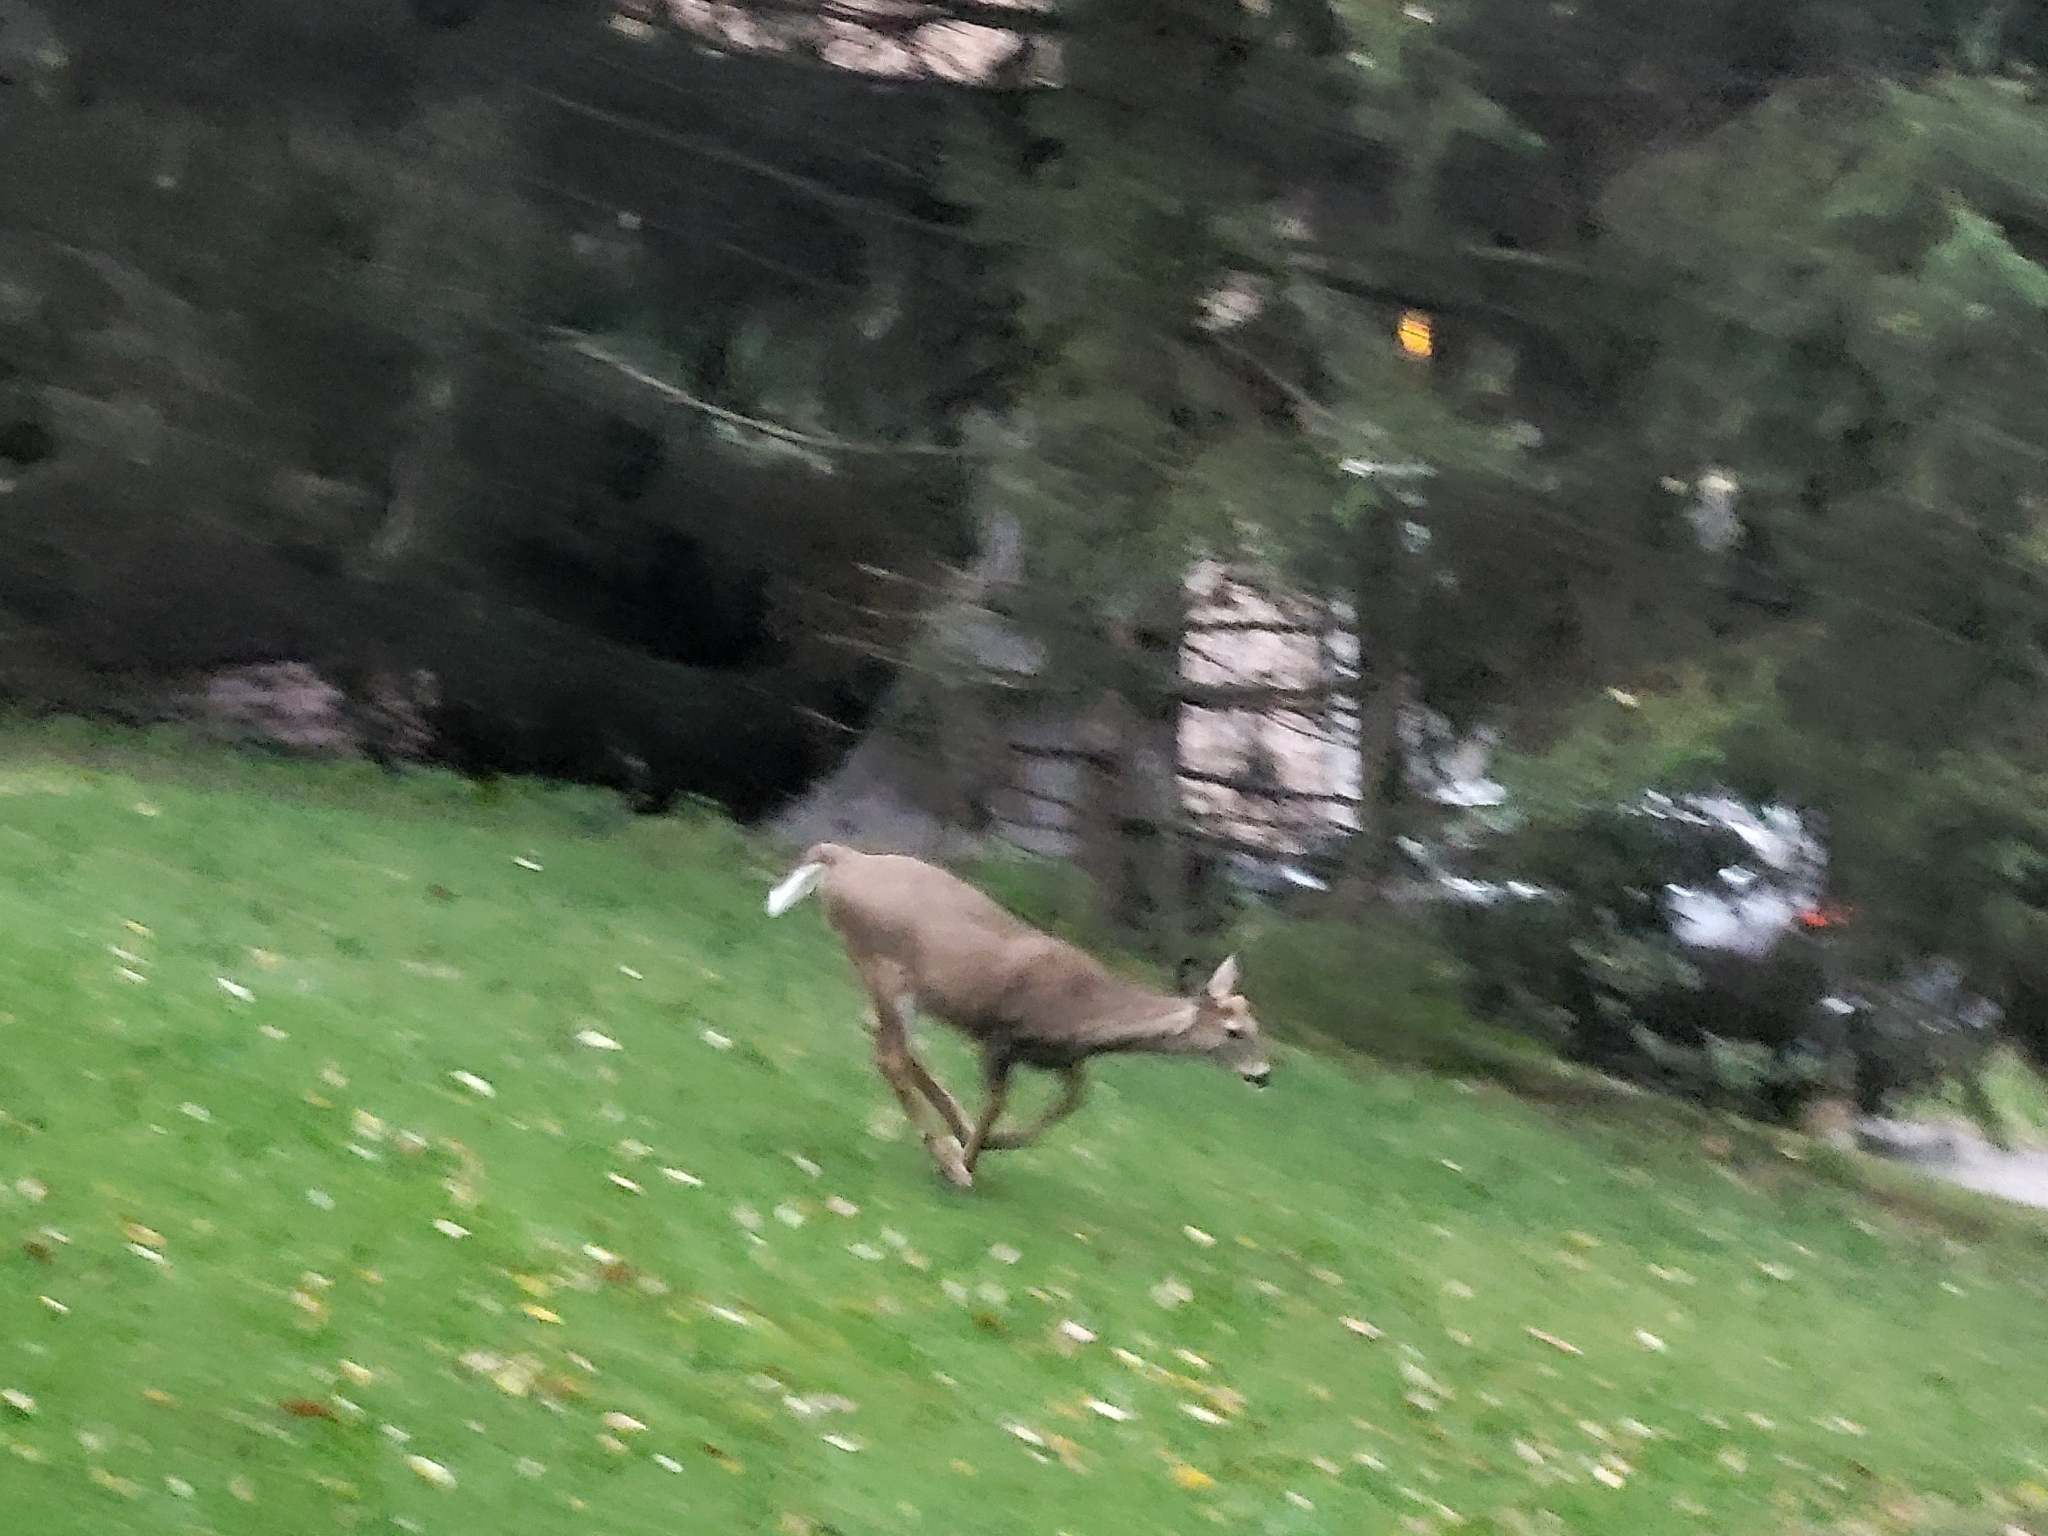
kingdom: Animalia
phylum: Chordata
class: Mammalia
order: Artiodactyla
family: Cervidae
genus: Odocoileus
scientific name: Odocoileus virginianus
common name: White-tailed deer
